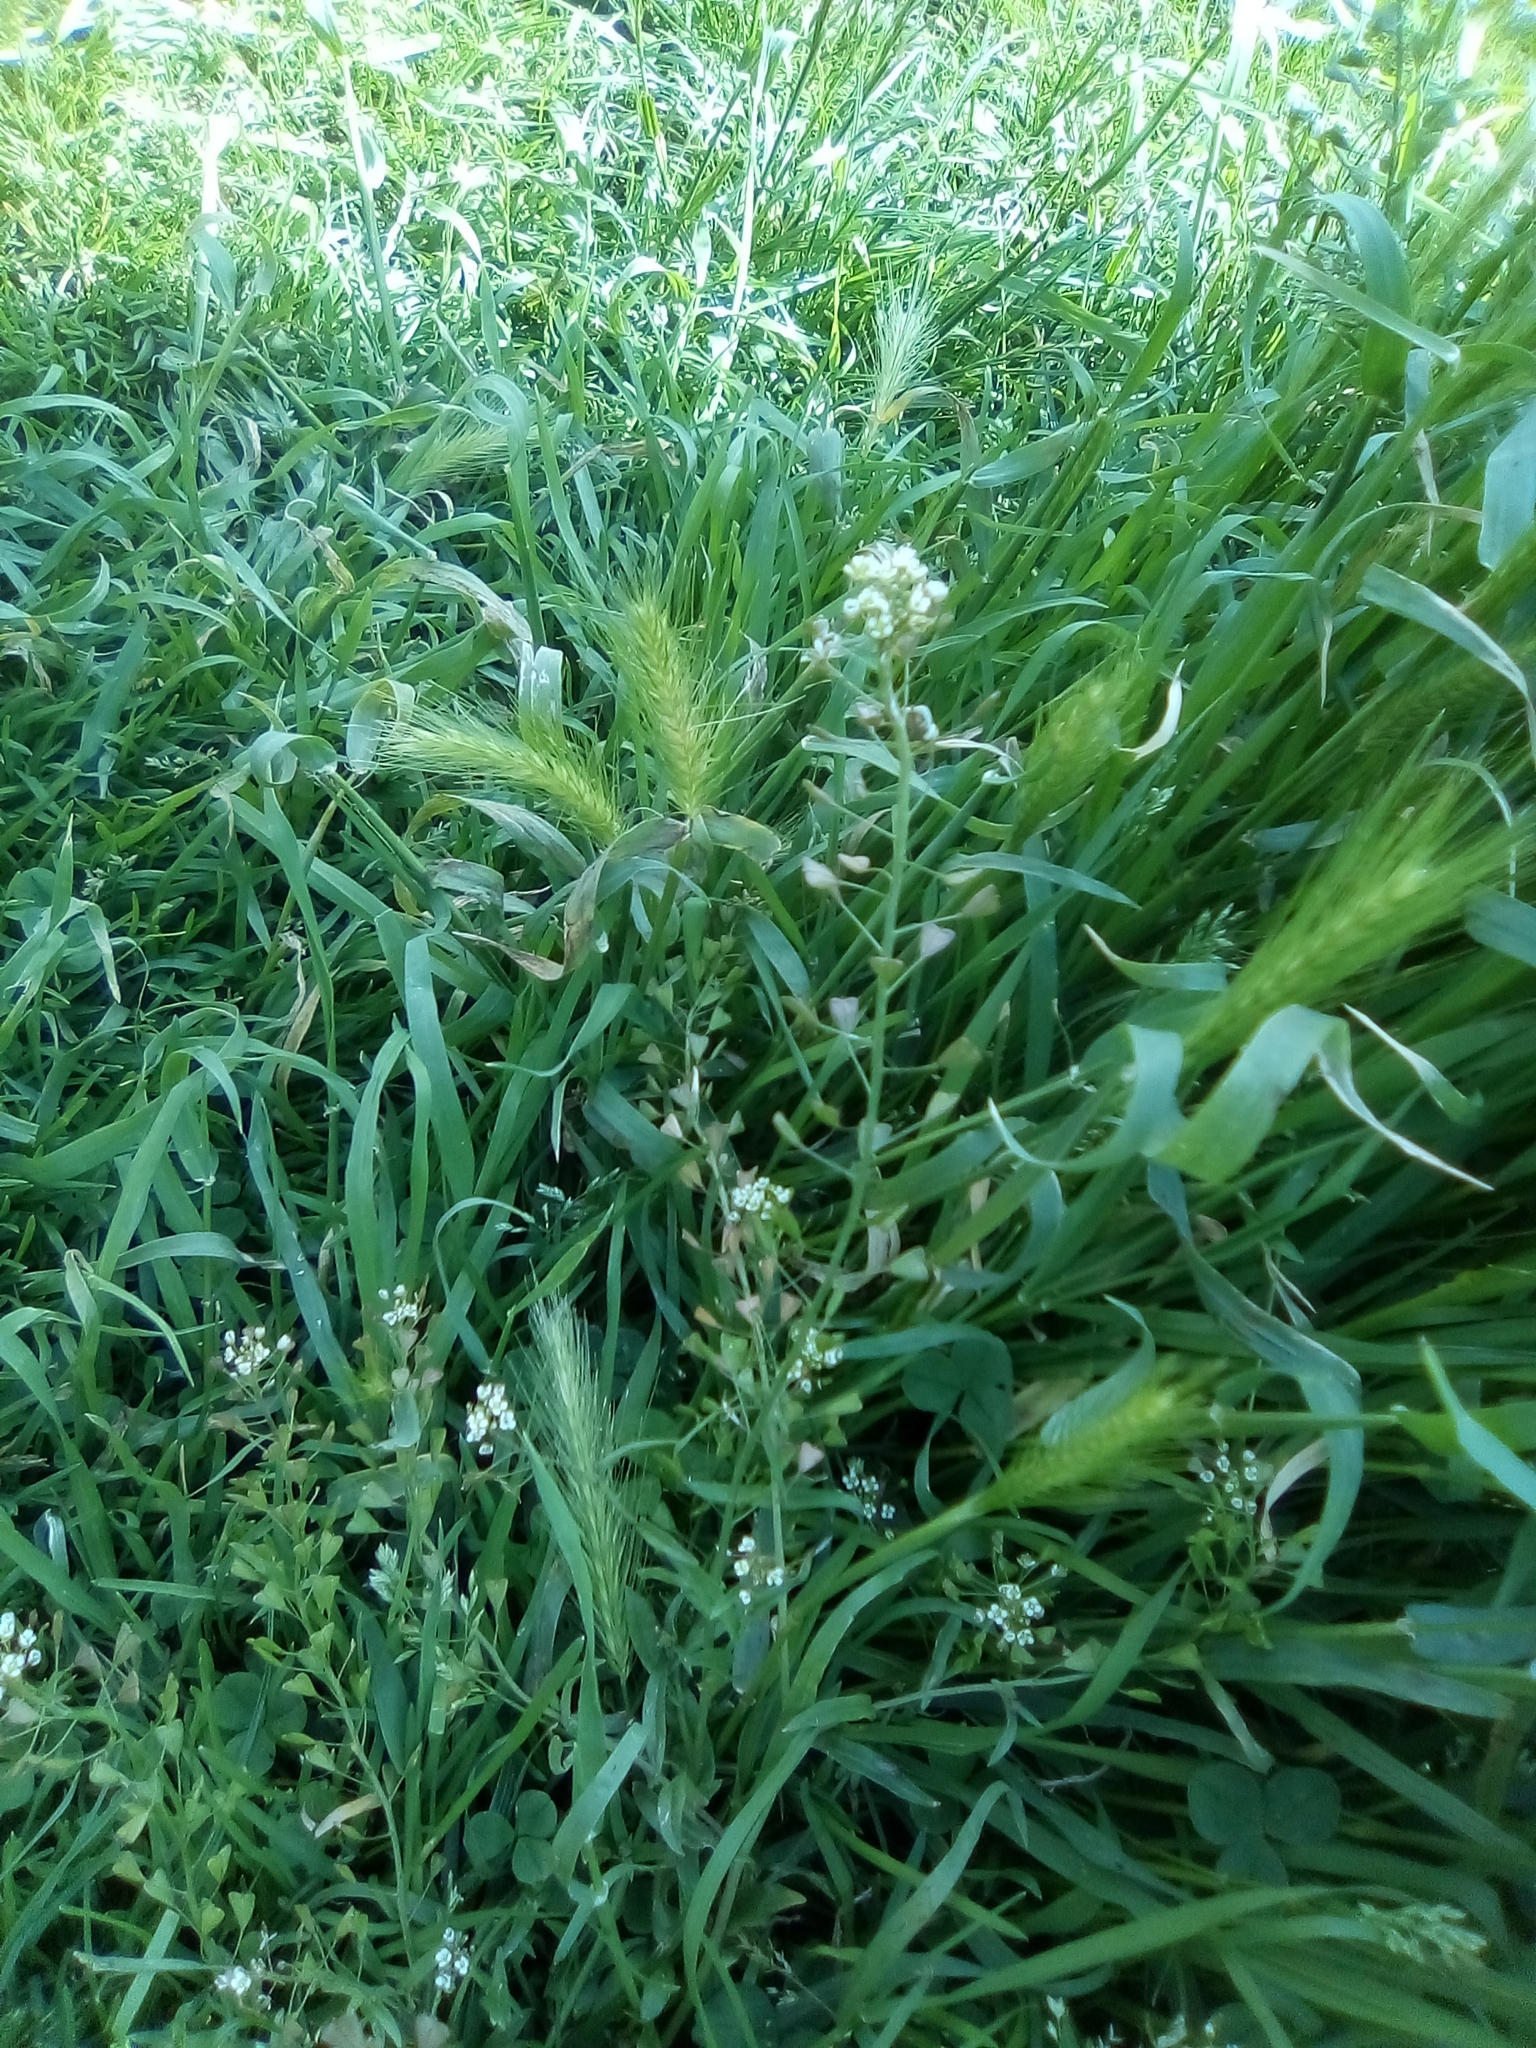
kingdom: Plantae
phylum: Tracheophyta
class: Magnoliopsida
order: Brassicales
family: Brassicaceae
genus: Capsella
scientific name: Capsella bursa-pastoris
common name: Shepherd's purse
